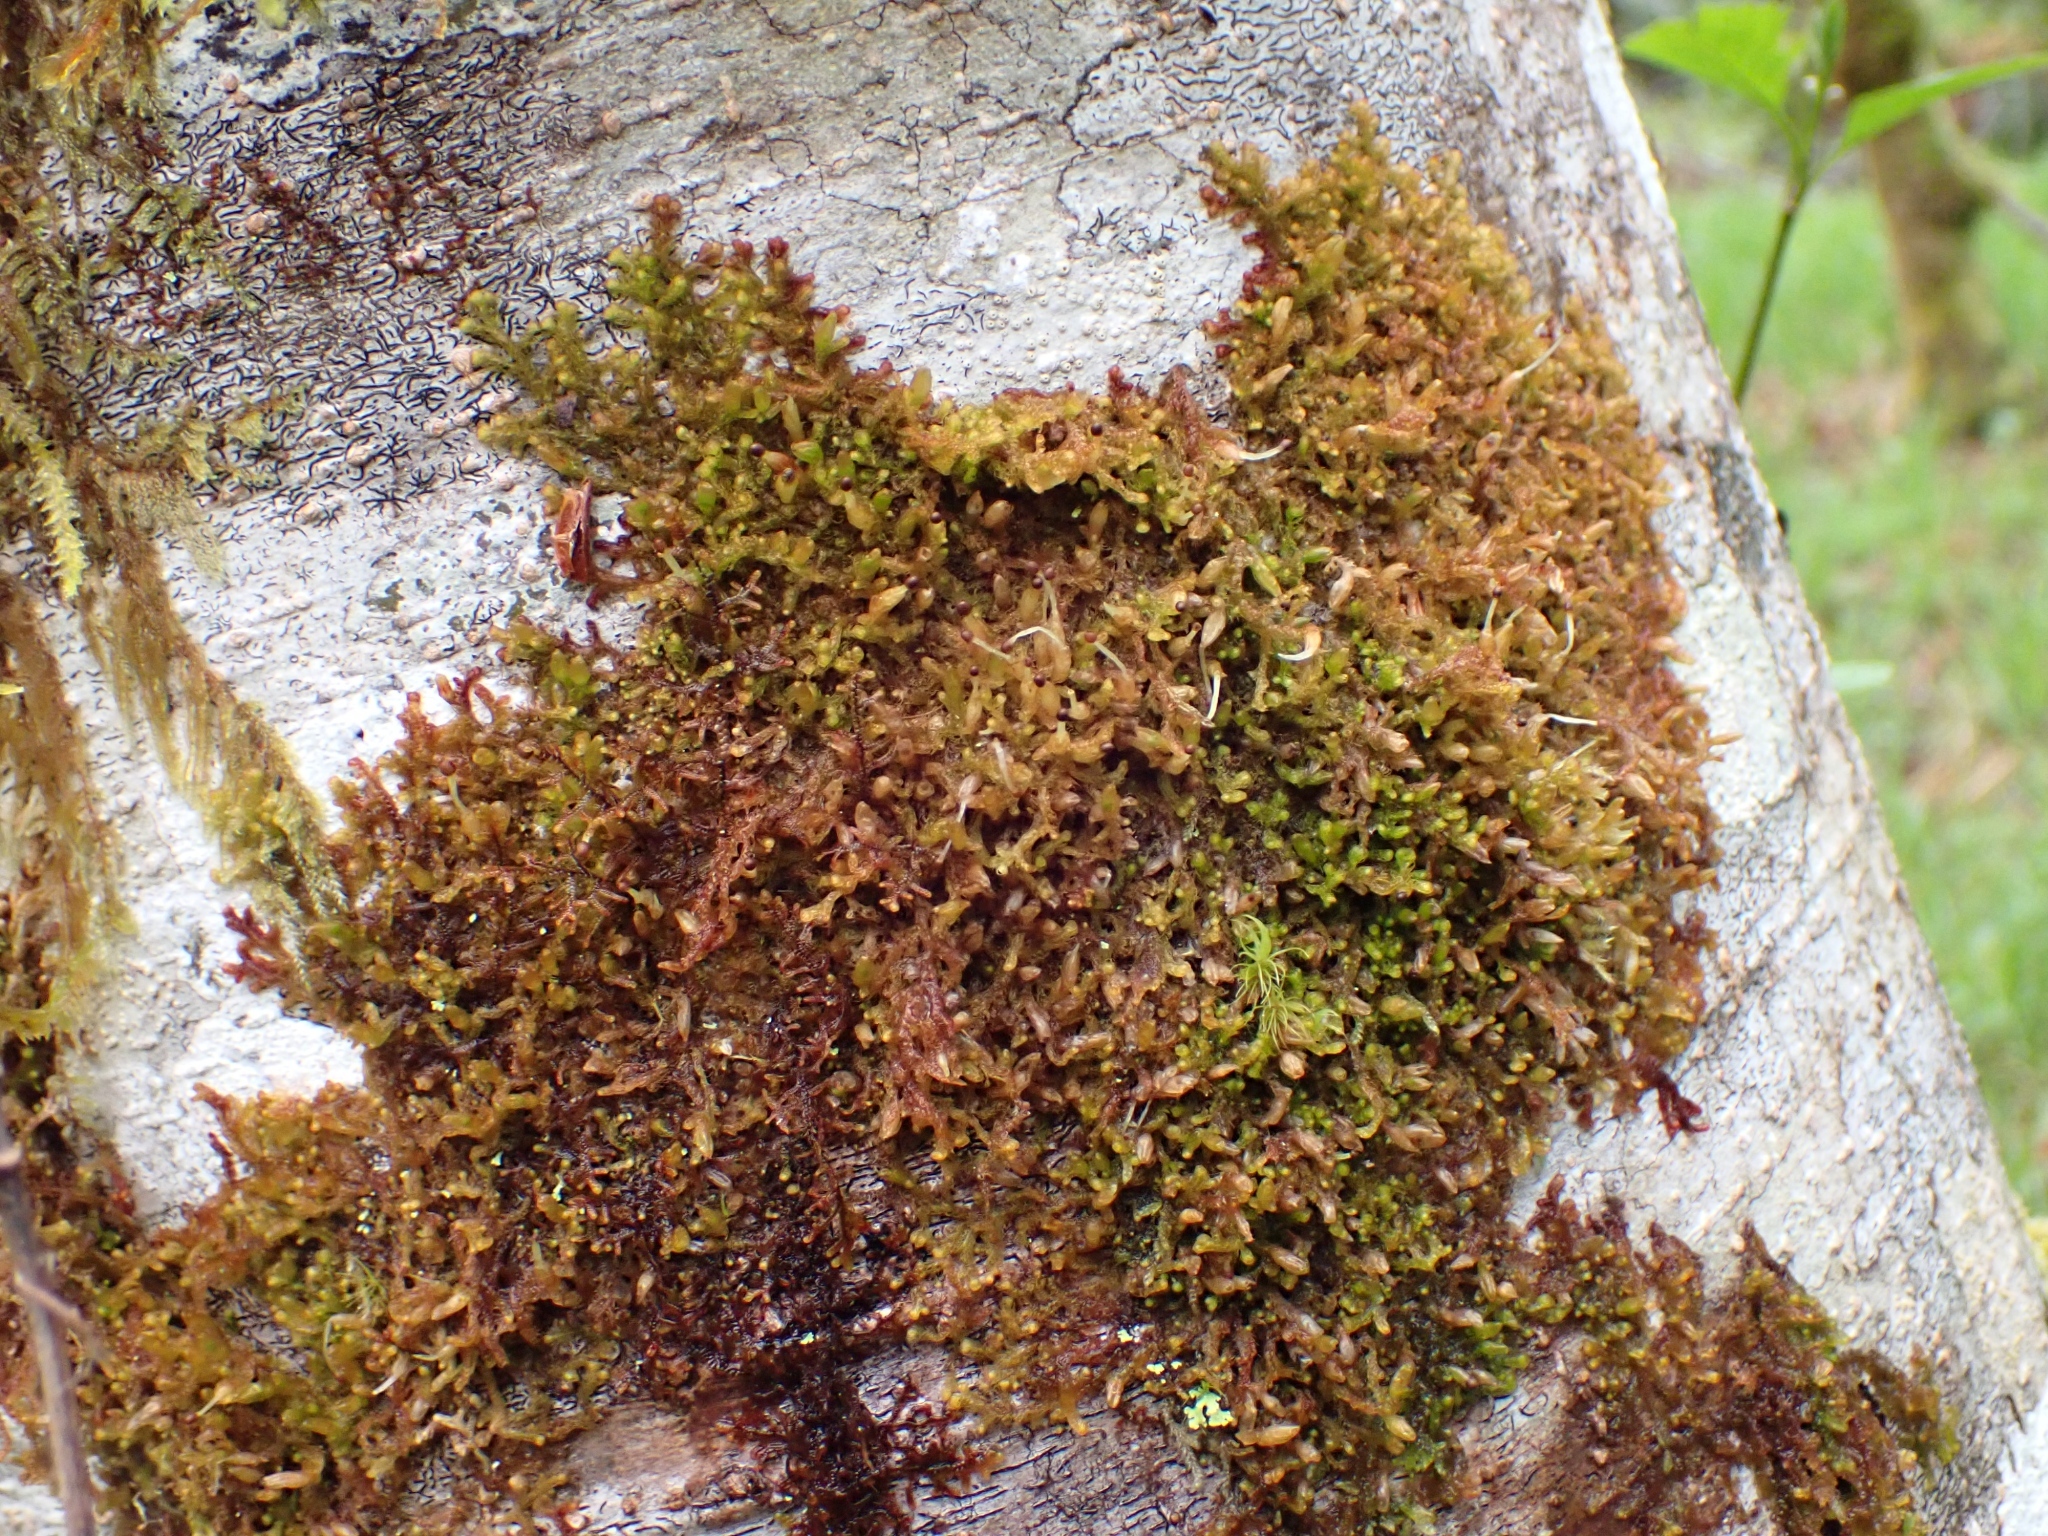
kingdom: Plantae
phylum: Marchantiophyta
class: Jungermanniopsida
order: Ptilidiales
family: Ptilidiaceae
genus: Ptilidium
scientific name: Ptilidium californicum
